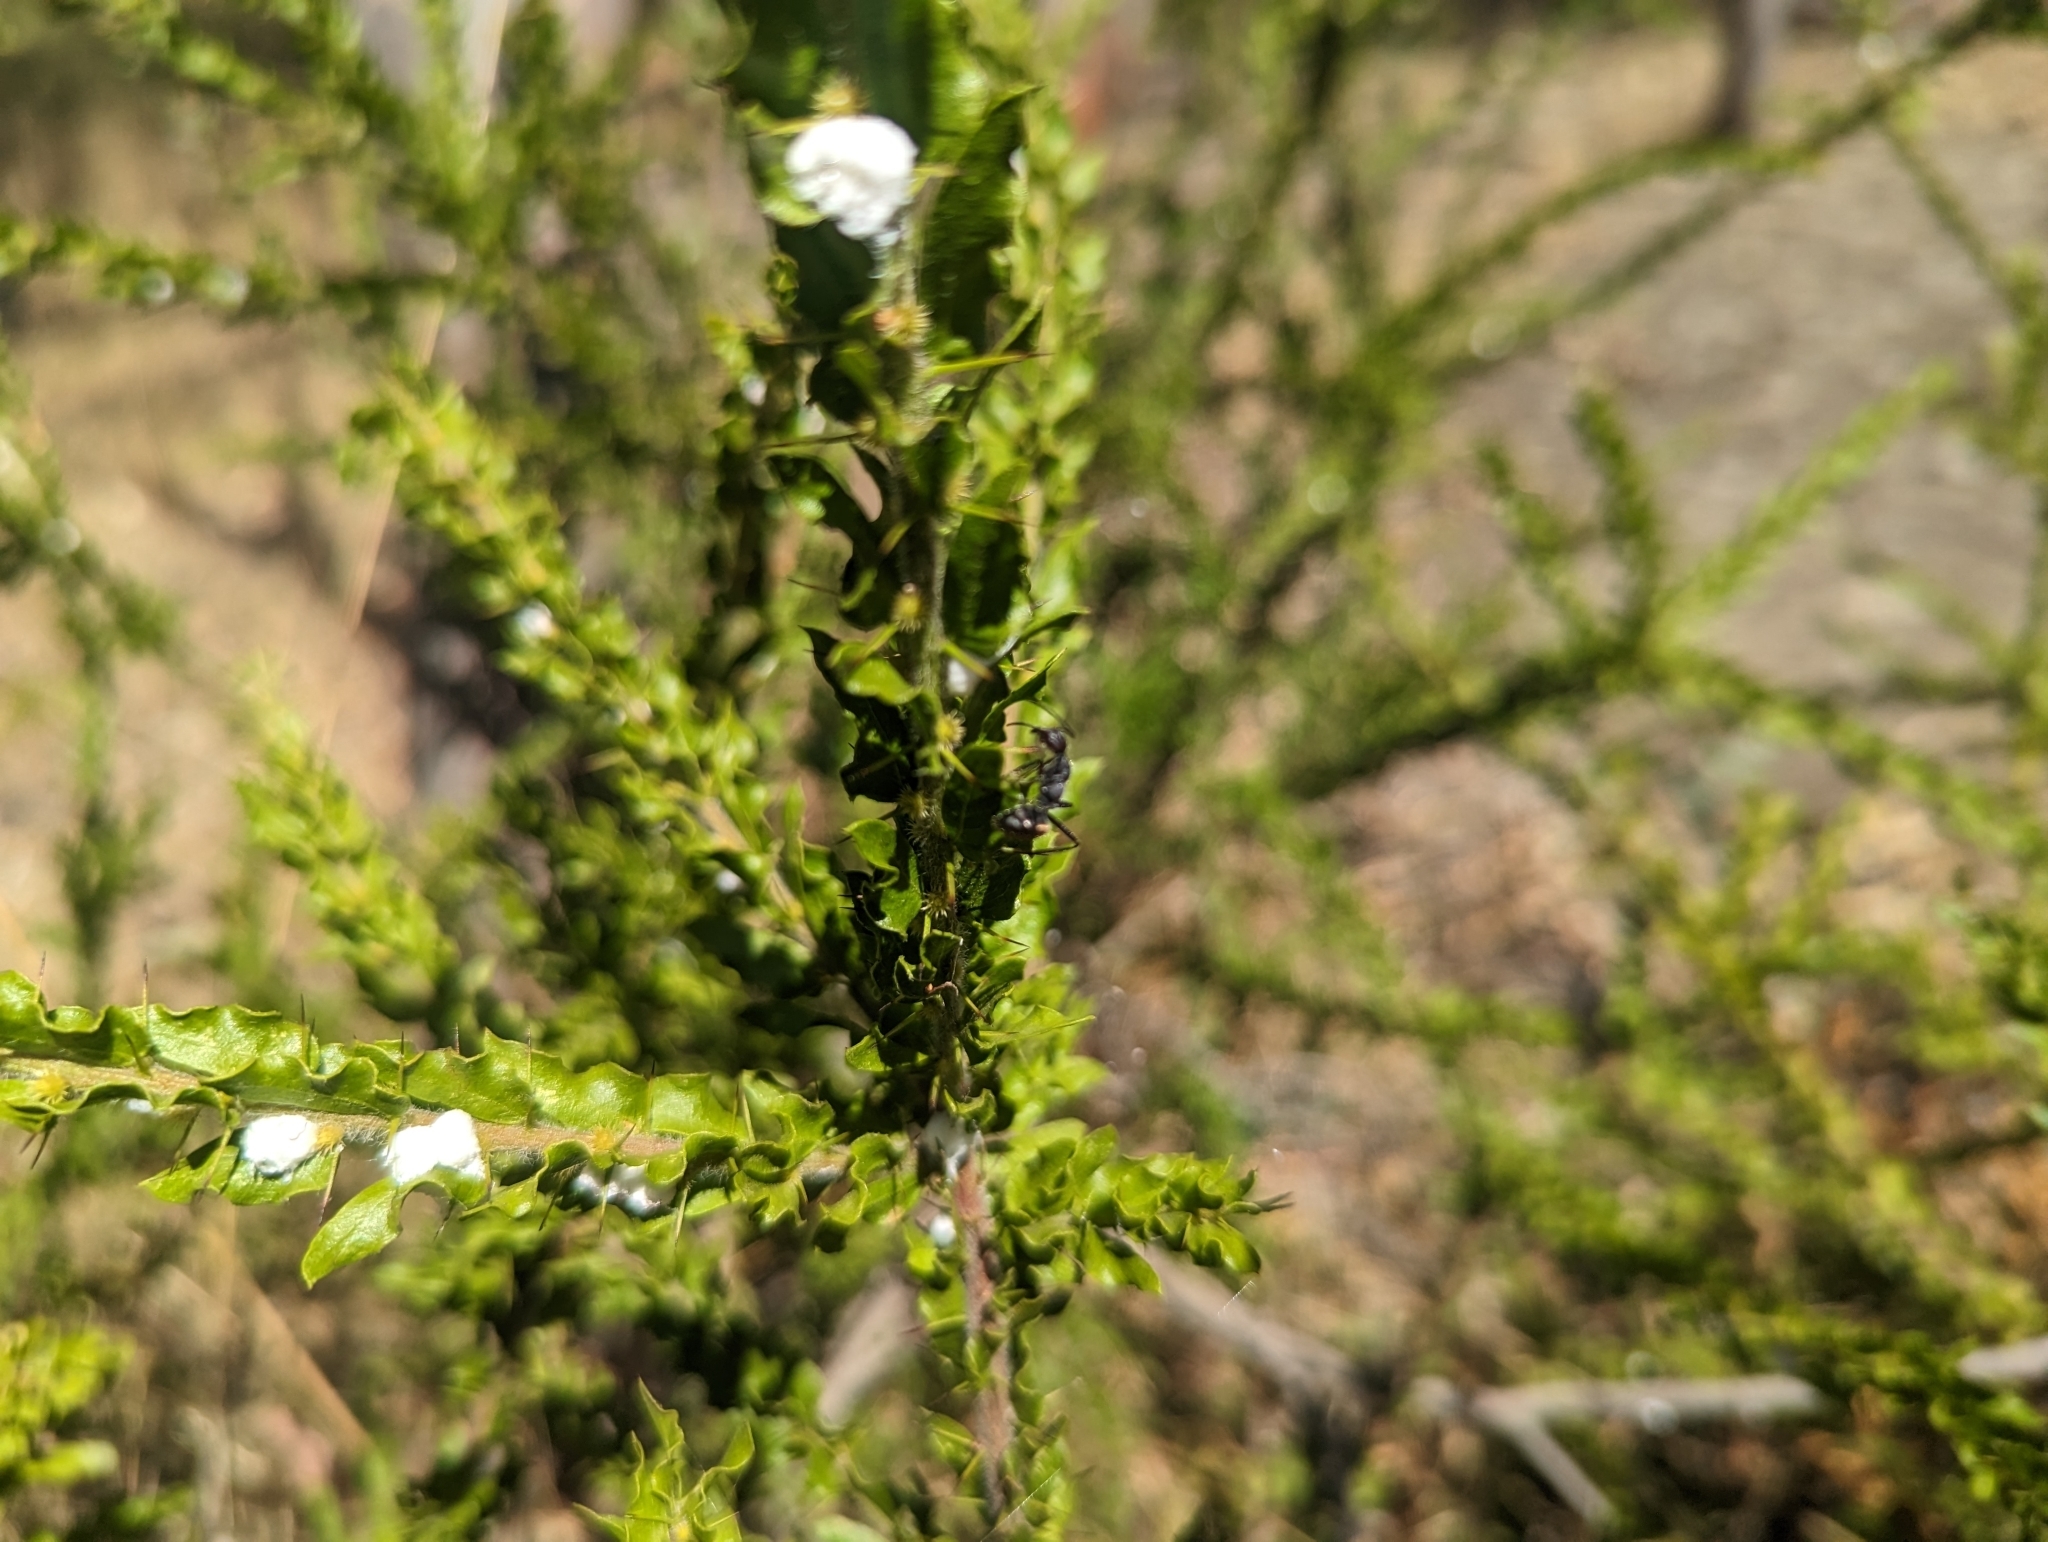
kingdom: Plantae
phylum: Tracheophyta
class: Magnoliopsida
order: Fabales
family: Fabaceae
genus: Acacia
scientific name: Acacia paradoxa
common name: Paradox acacia
